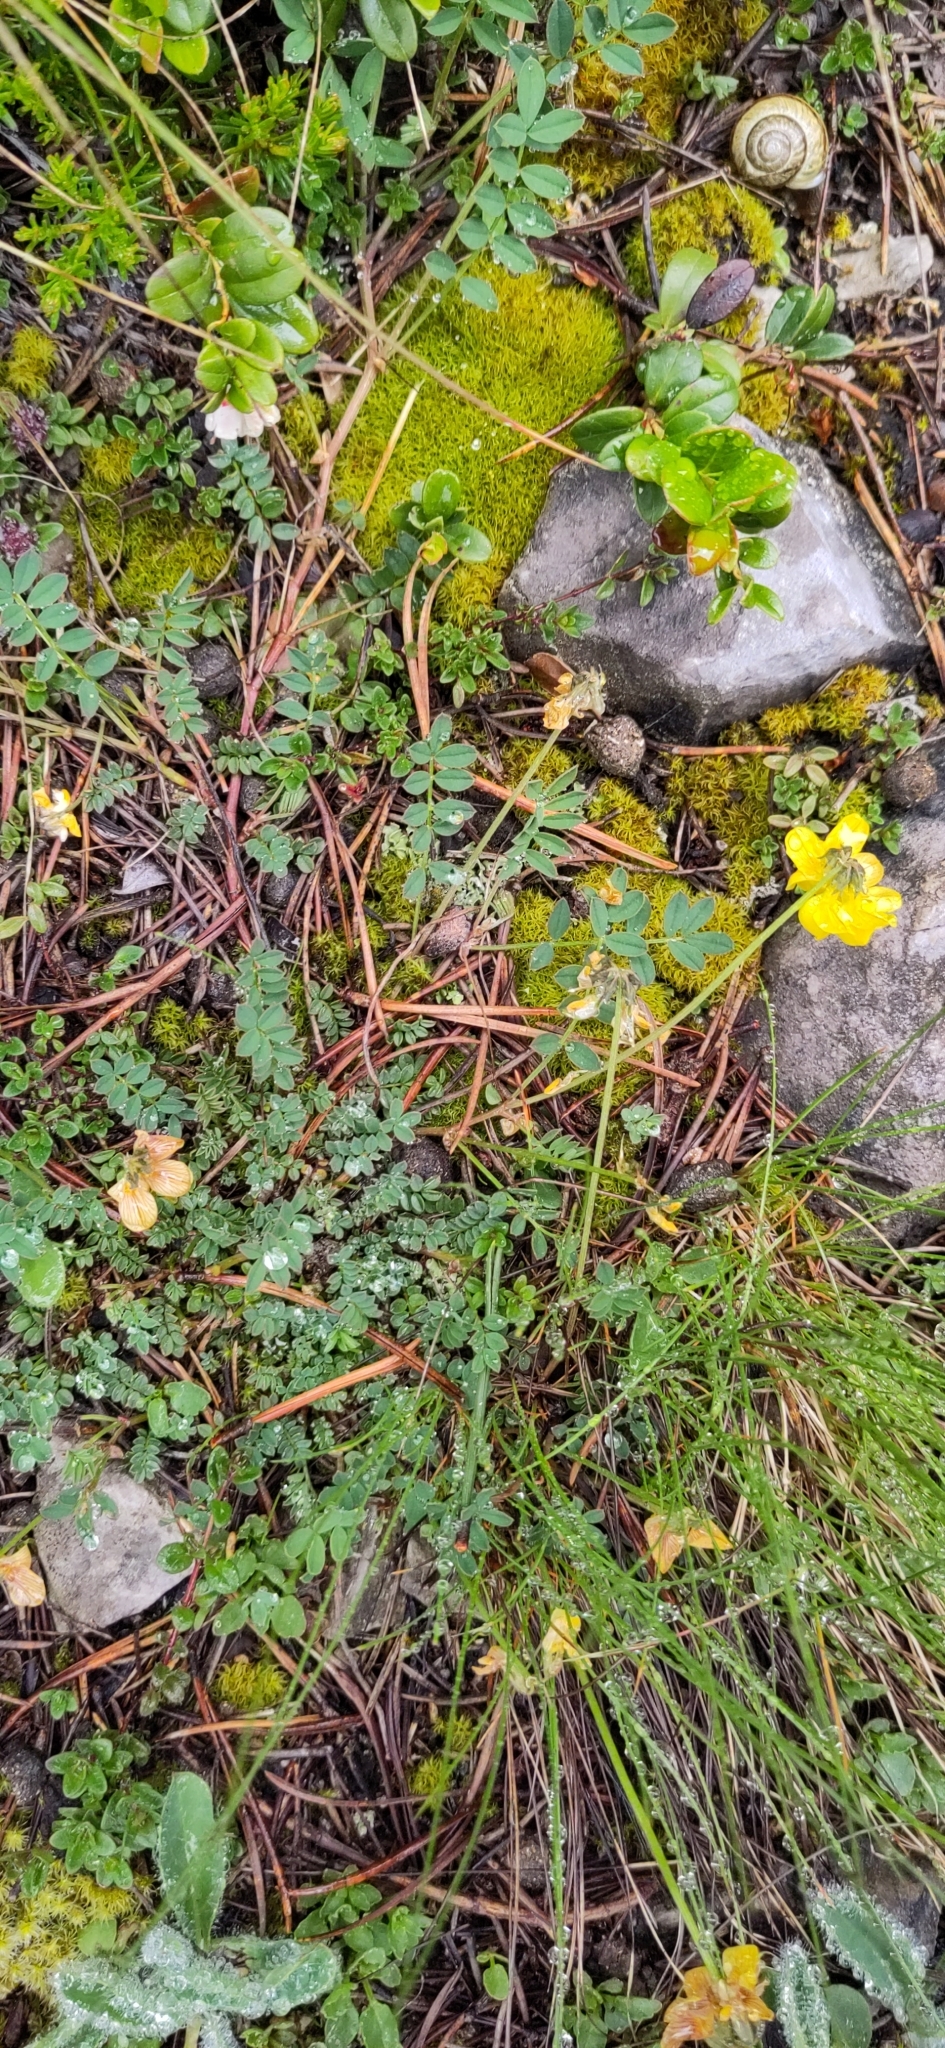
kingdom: Plantae
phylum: Tracheophyta
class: Magnoliopsida
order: Fabales
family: Fabaceae
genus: Hippocrepis
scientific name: Hippocrepis comosa
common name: Horseshoe vetch
